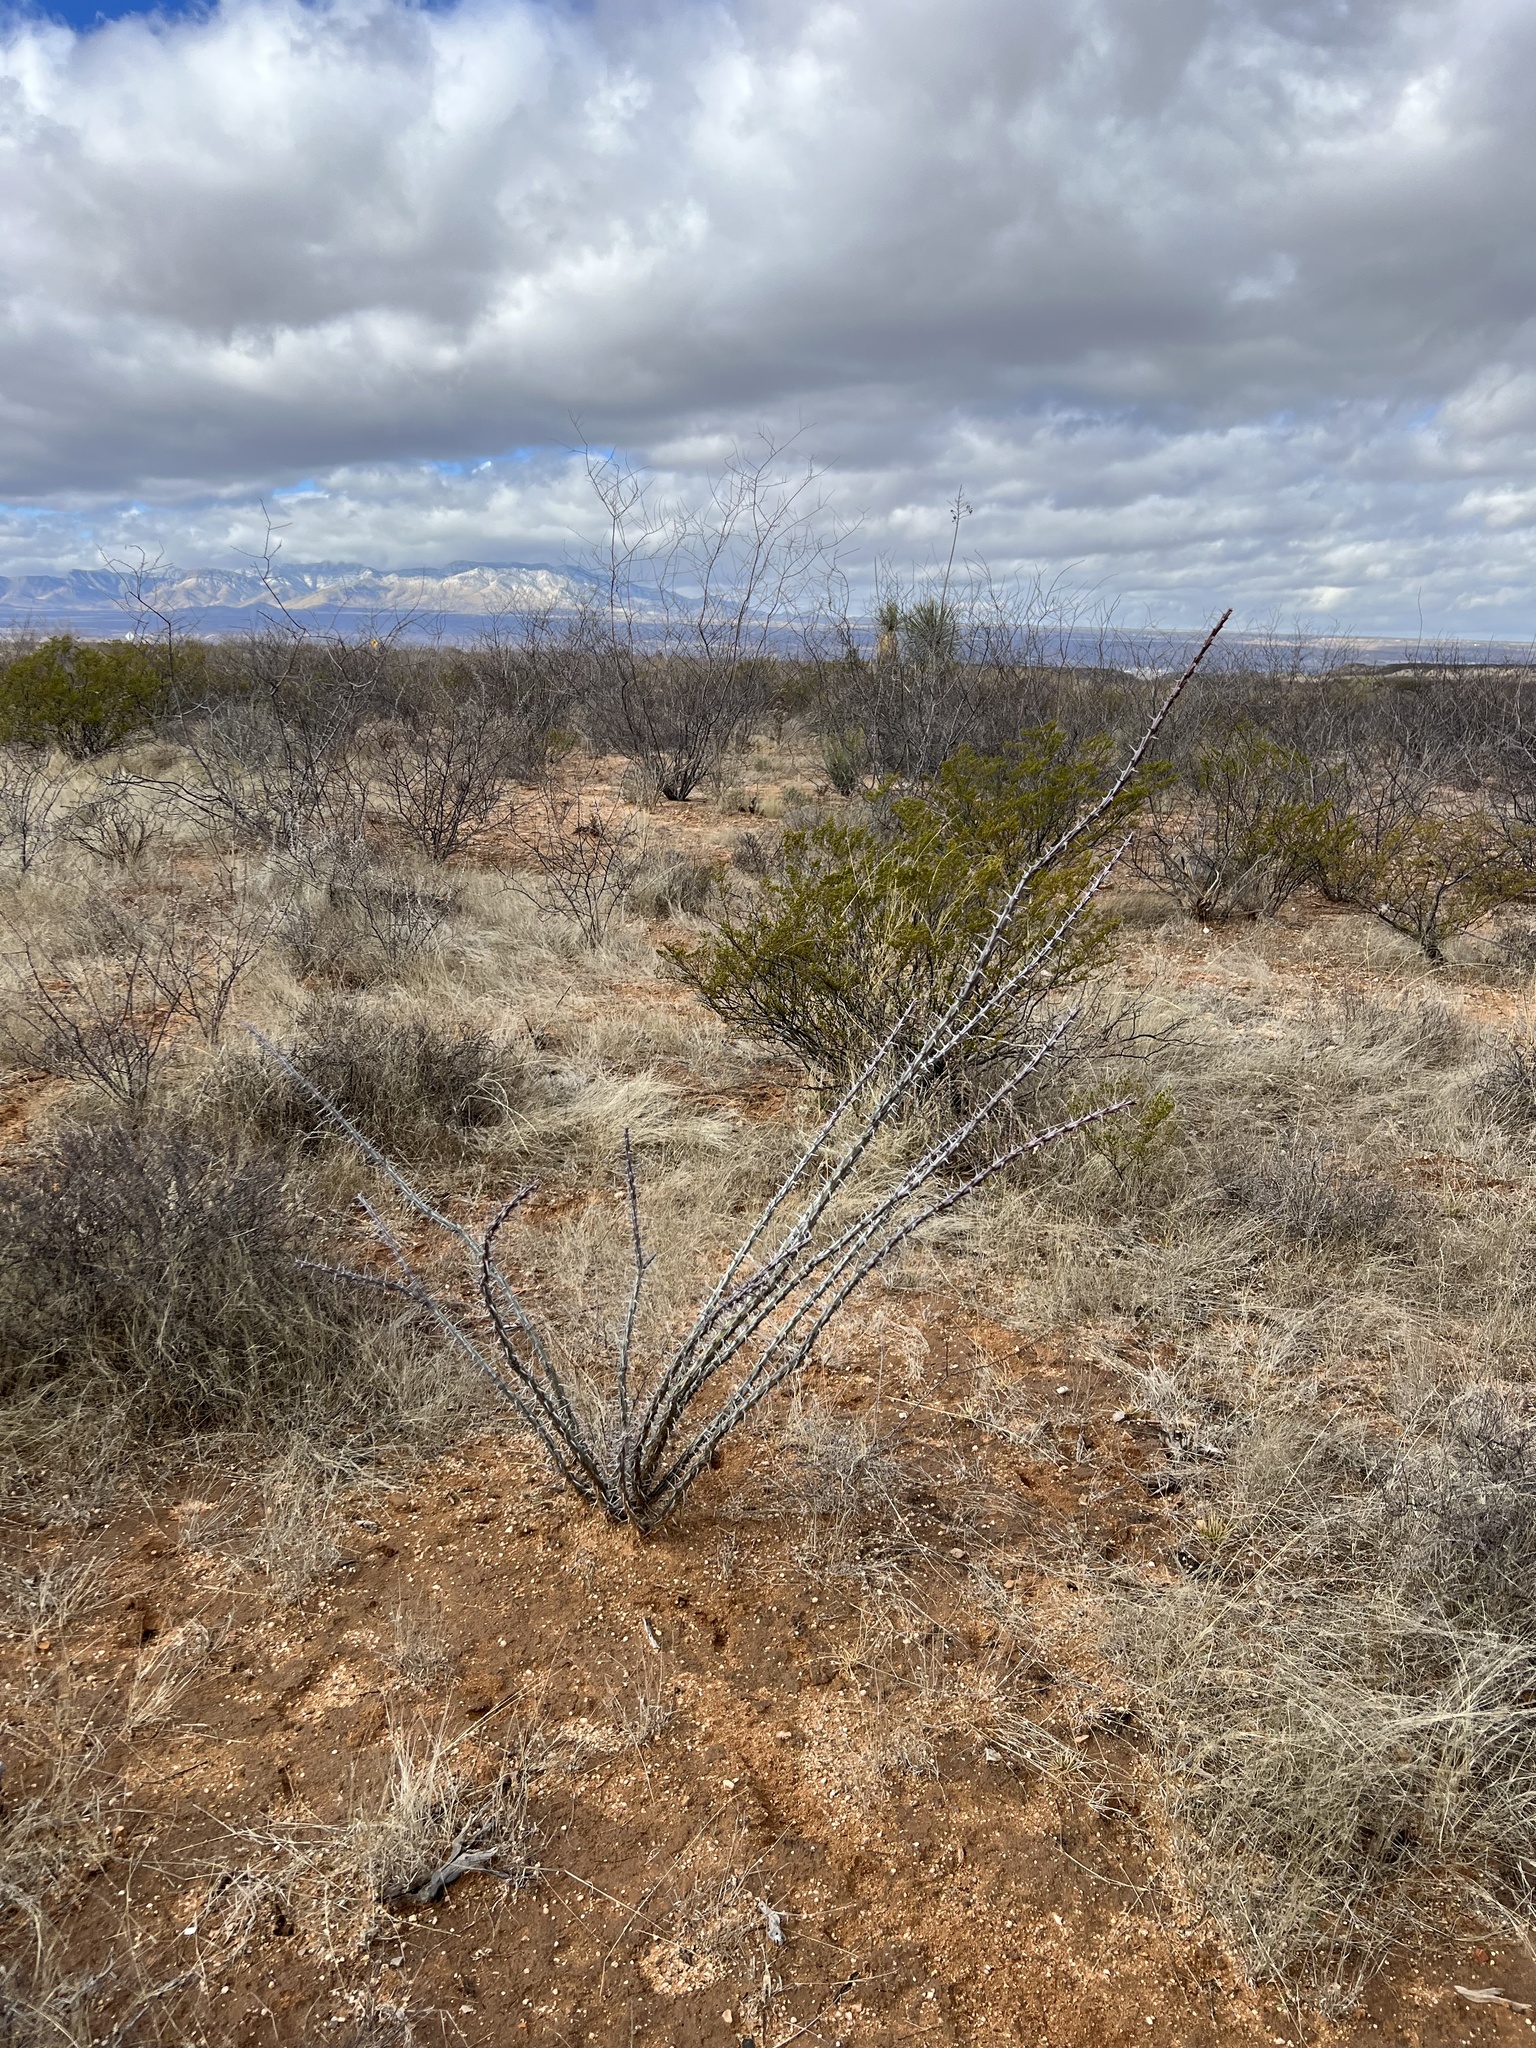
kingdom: Plantae
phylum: Tracheophyta
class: Magnoliopsida
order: Ericales
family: Fouquieriaceae
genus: Fouquieria
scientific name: Fouquieria splendens
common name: Vine-cactus
